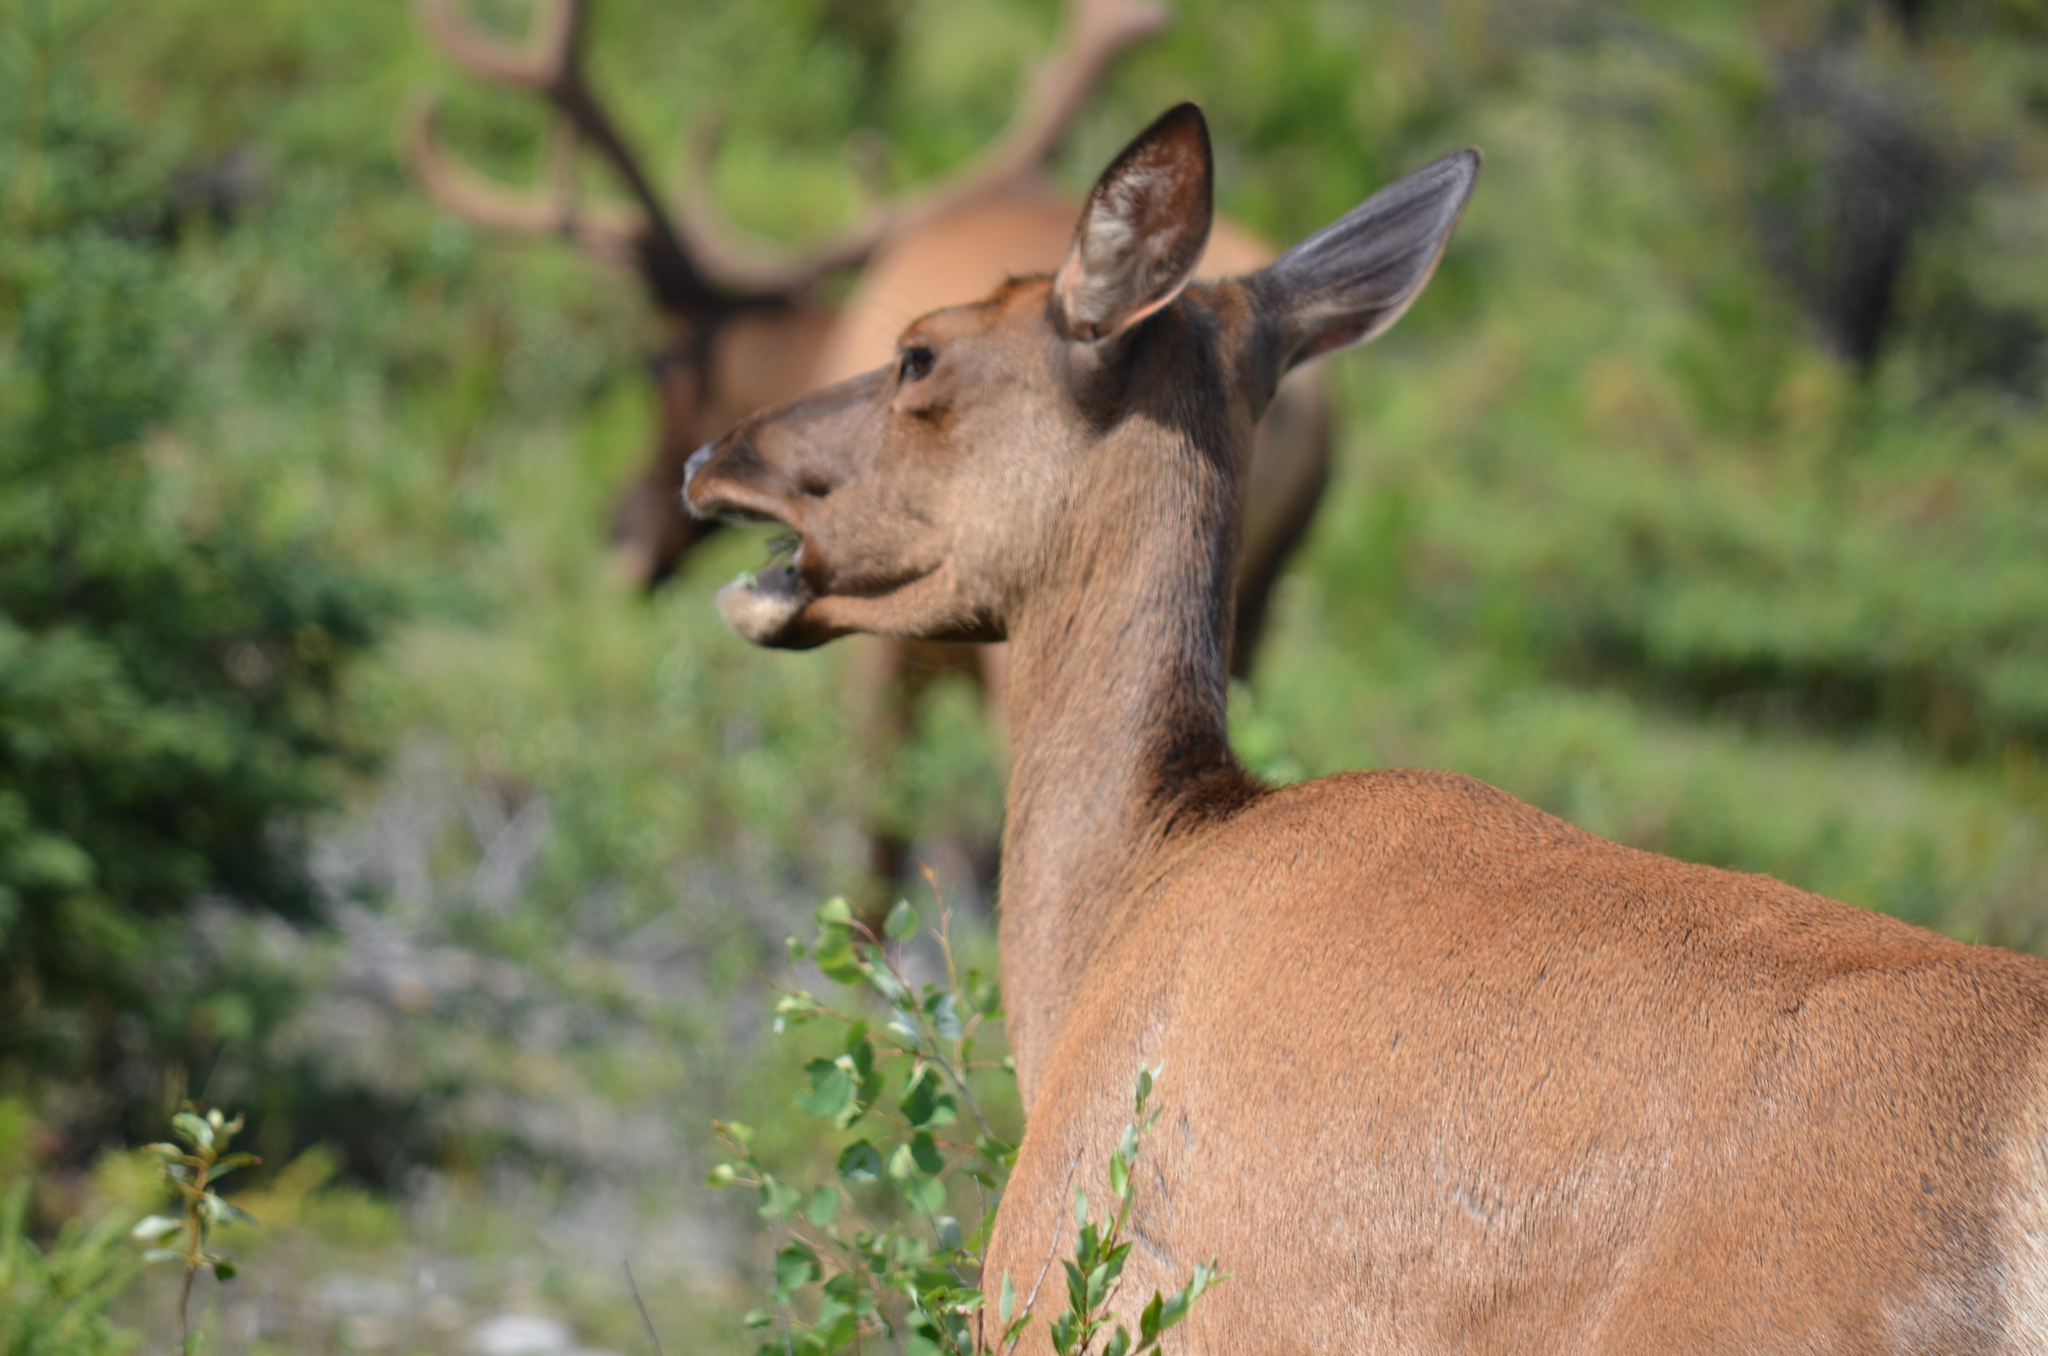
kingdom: Animalia
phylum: Chordata
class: Mammalia
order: Artiodactyla
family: Cervidae
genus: Cervus
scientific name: Cervus elaphus
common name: Red deer
